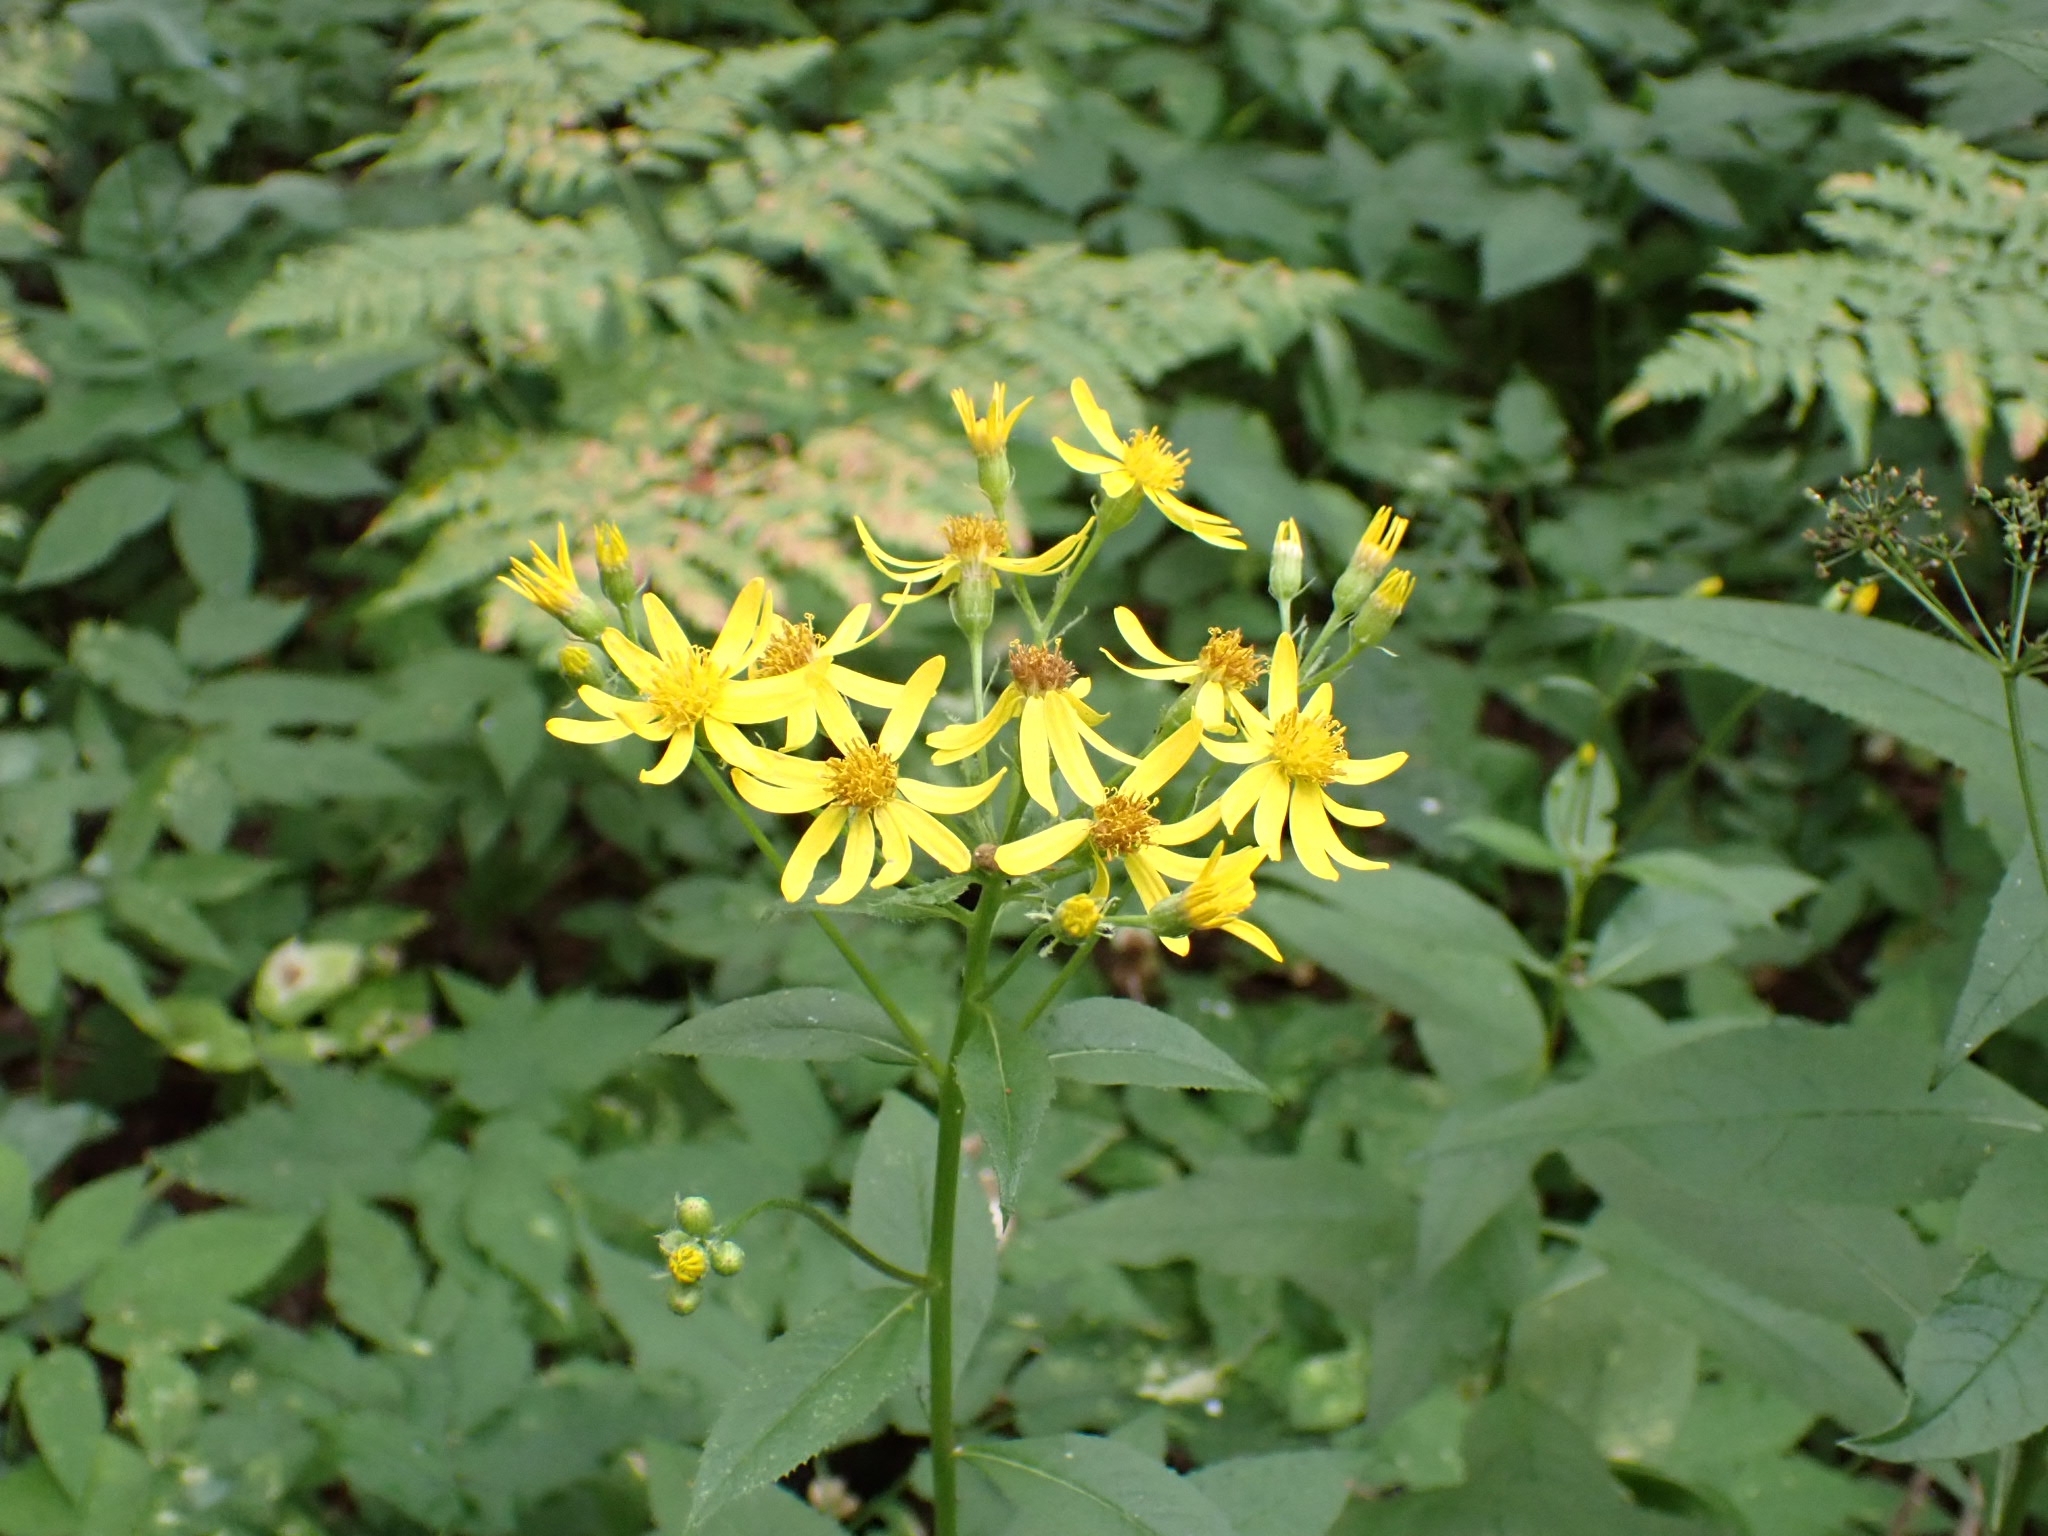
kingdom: Plantae
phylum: Tracheophyta
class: Magnoliopsida
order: Asterales
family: Asteraceae
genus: Senecio
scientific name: Senecio nemorensis
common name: Alpine ragwort
